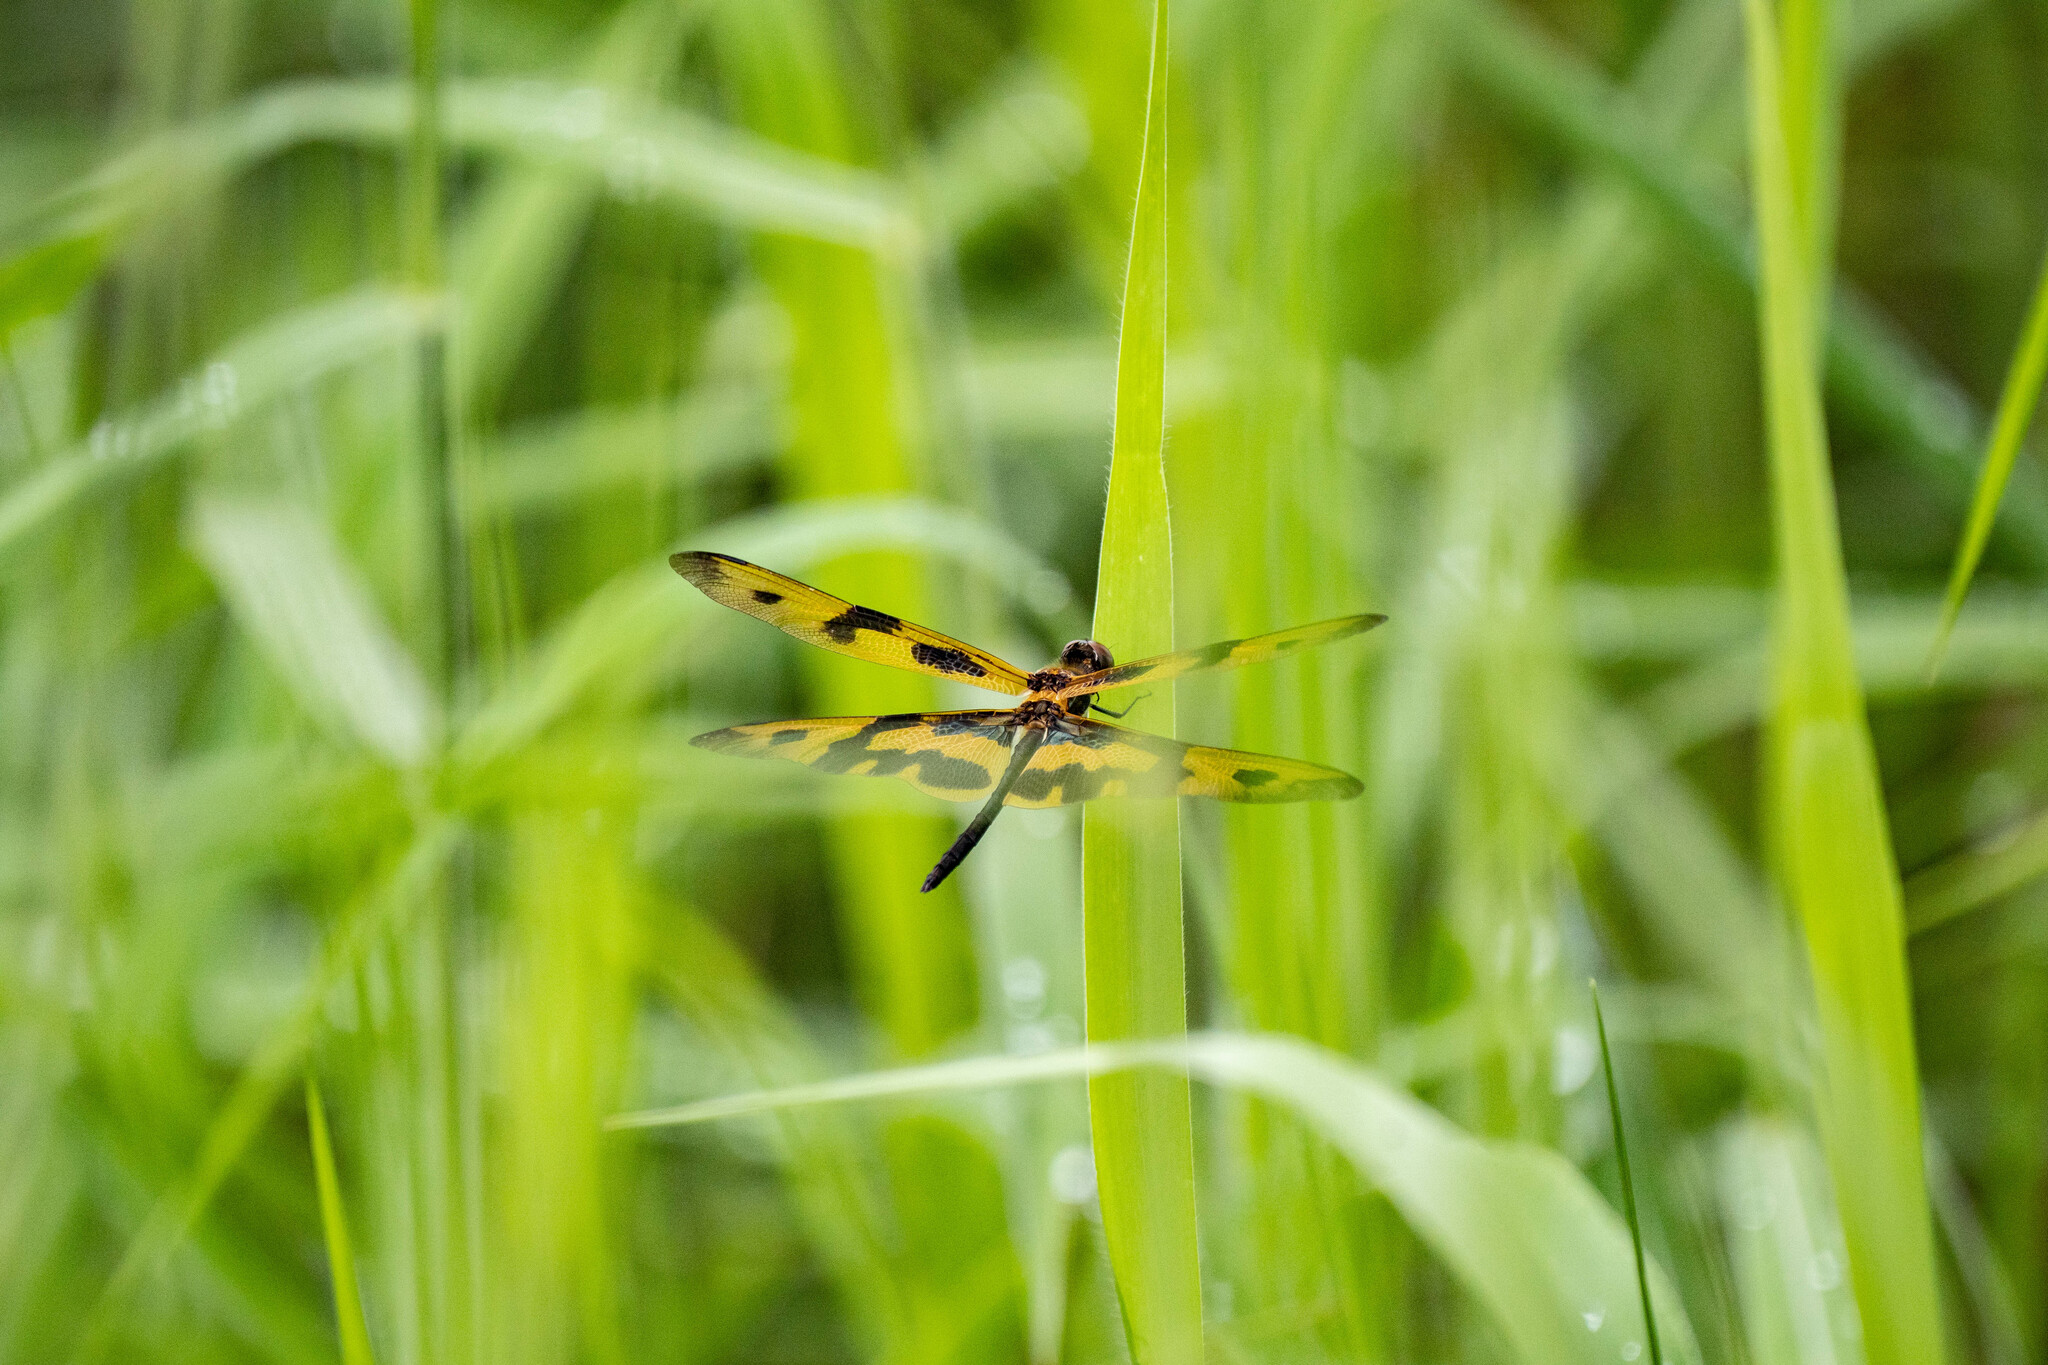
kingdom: Animalia
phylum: Arthropoda
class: Insecta
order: Odonata
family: Libellulidae
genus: Rhyothemis
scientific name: Rhyothemis variegata
